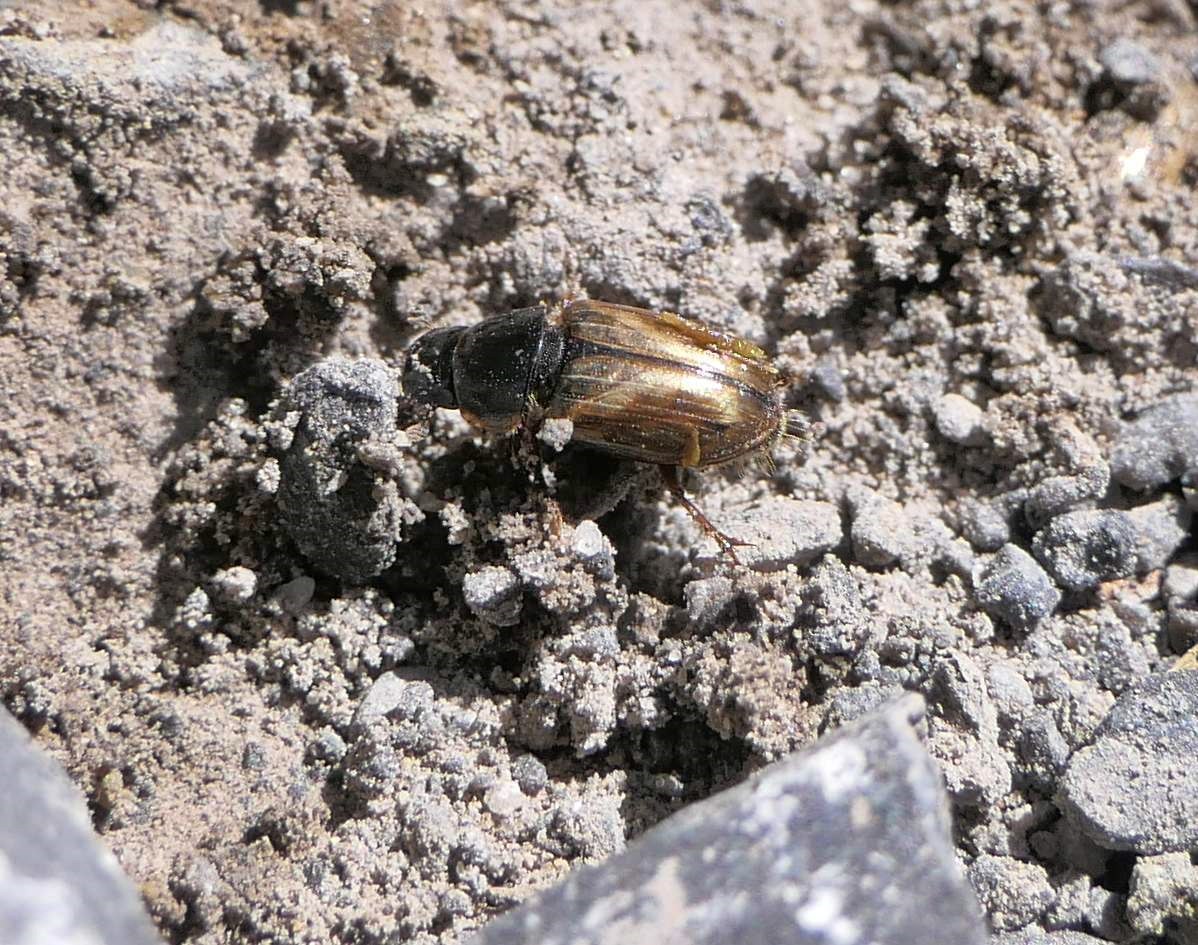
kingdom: Animalia
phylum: Arthropoda
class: Insecta
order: Coleoptera
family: Scarabaeidae
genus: Melinopterus
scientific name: Melinopterus prodromus
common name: Spring small dung beetle
